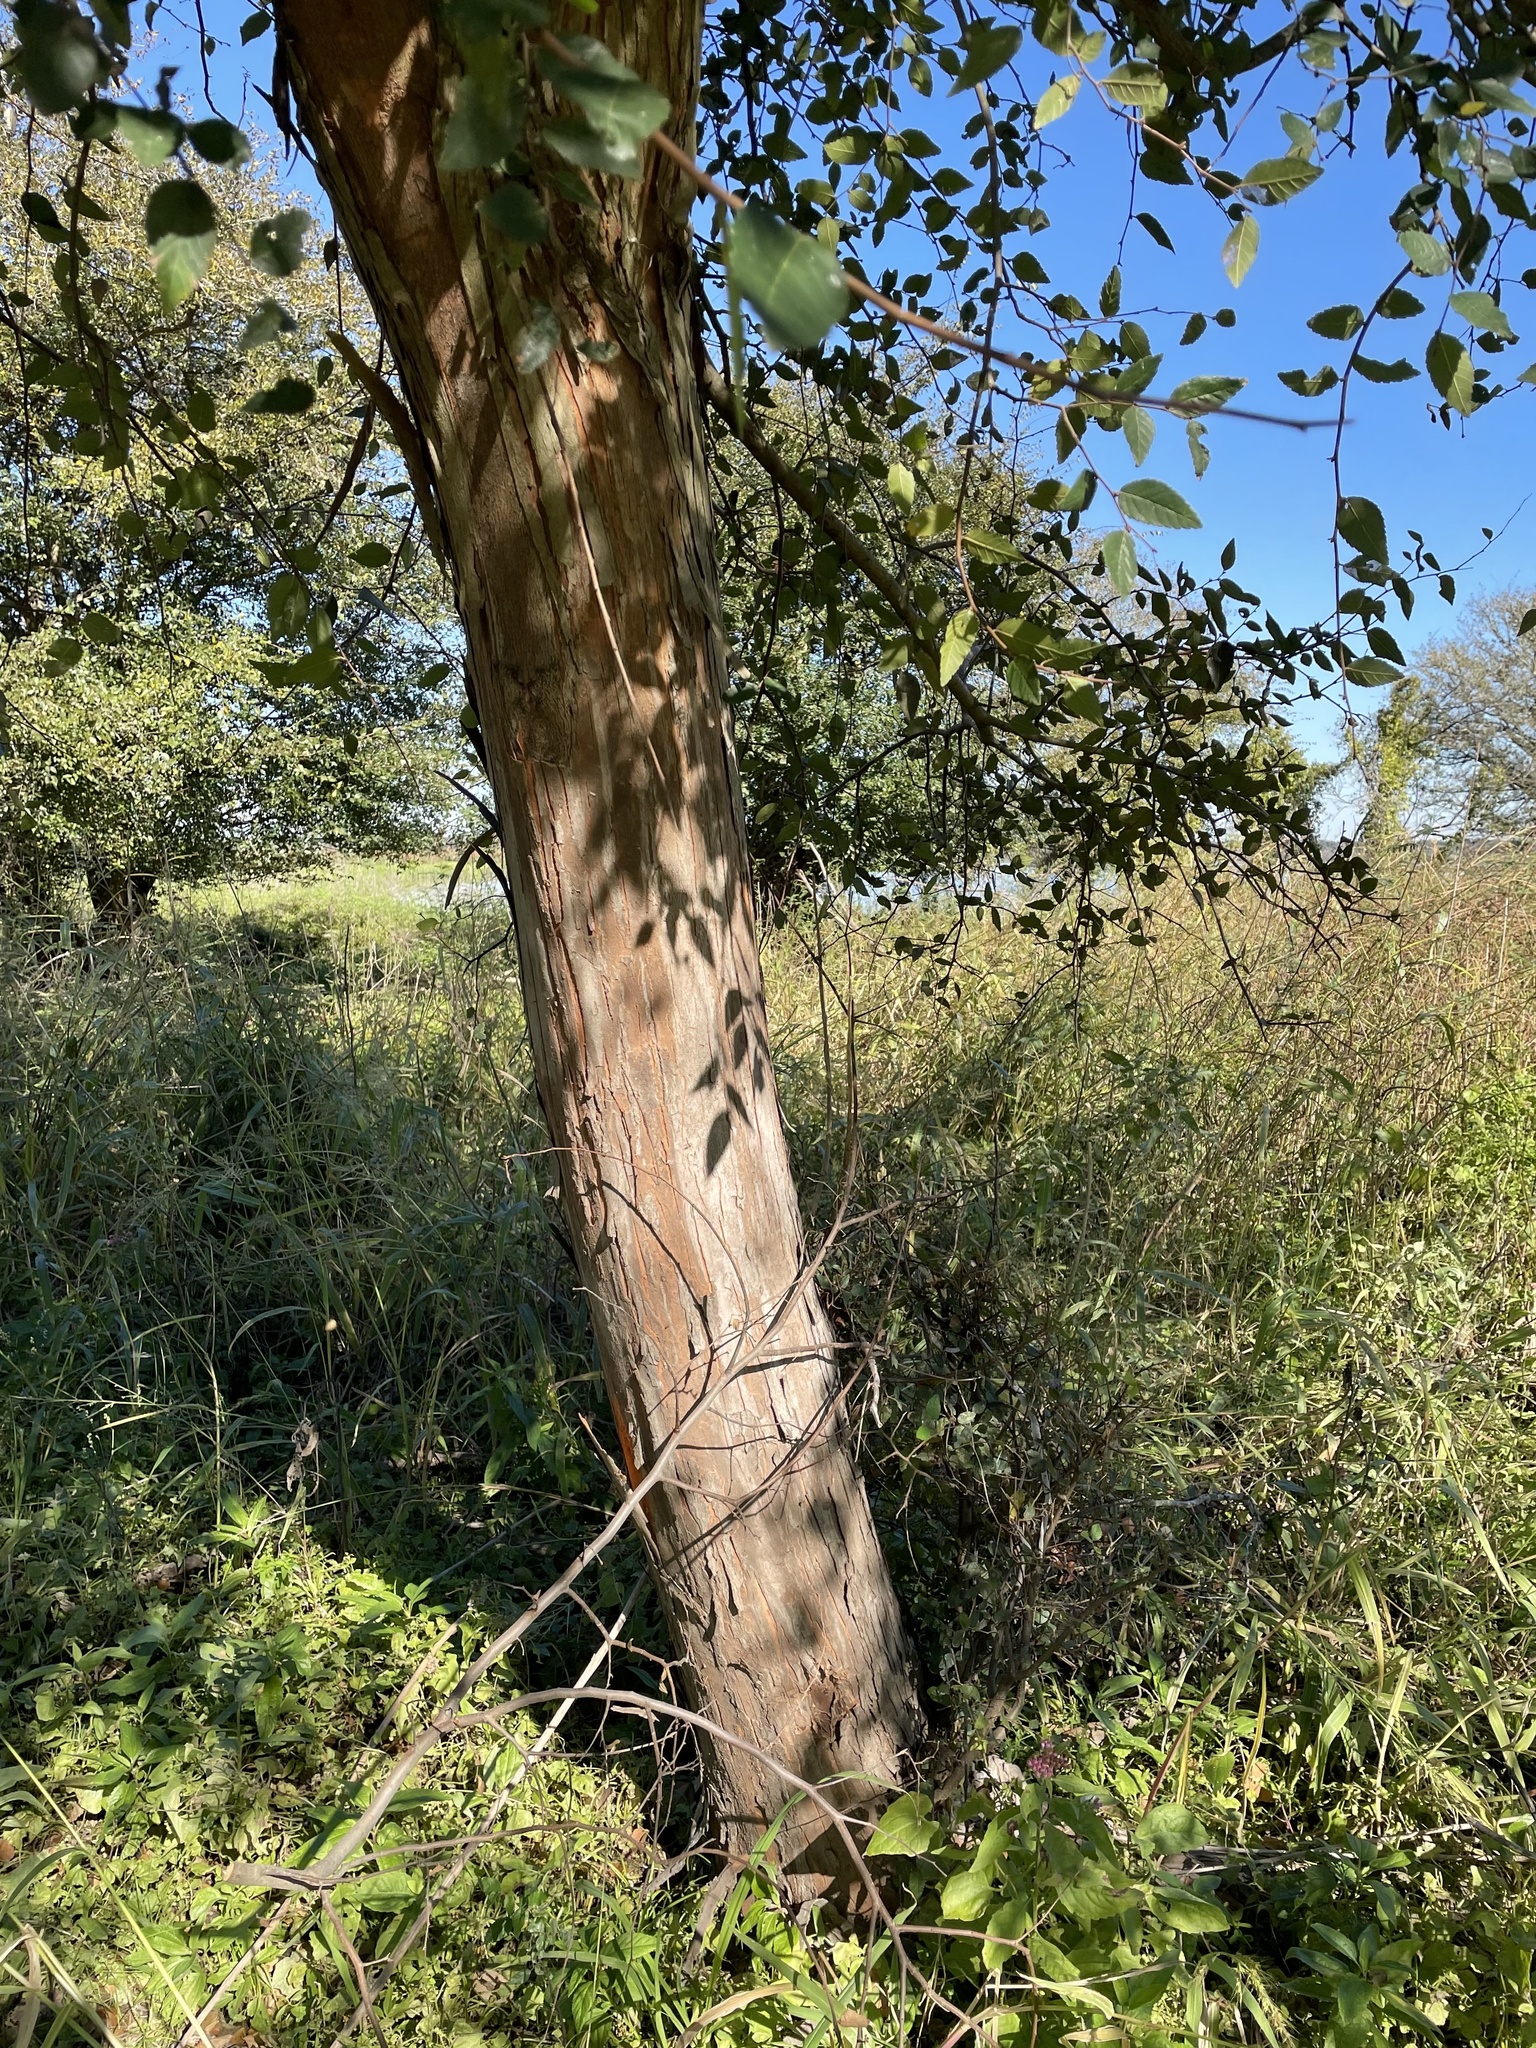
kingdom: Plantae
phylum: Tracheophyta
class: Magnoliopsida
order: Rosales
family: Ulmaceae
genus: Planera
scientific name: Planera aquatica
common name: Water-elm
